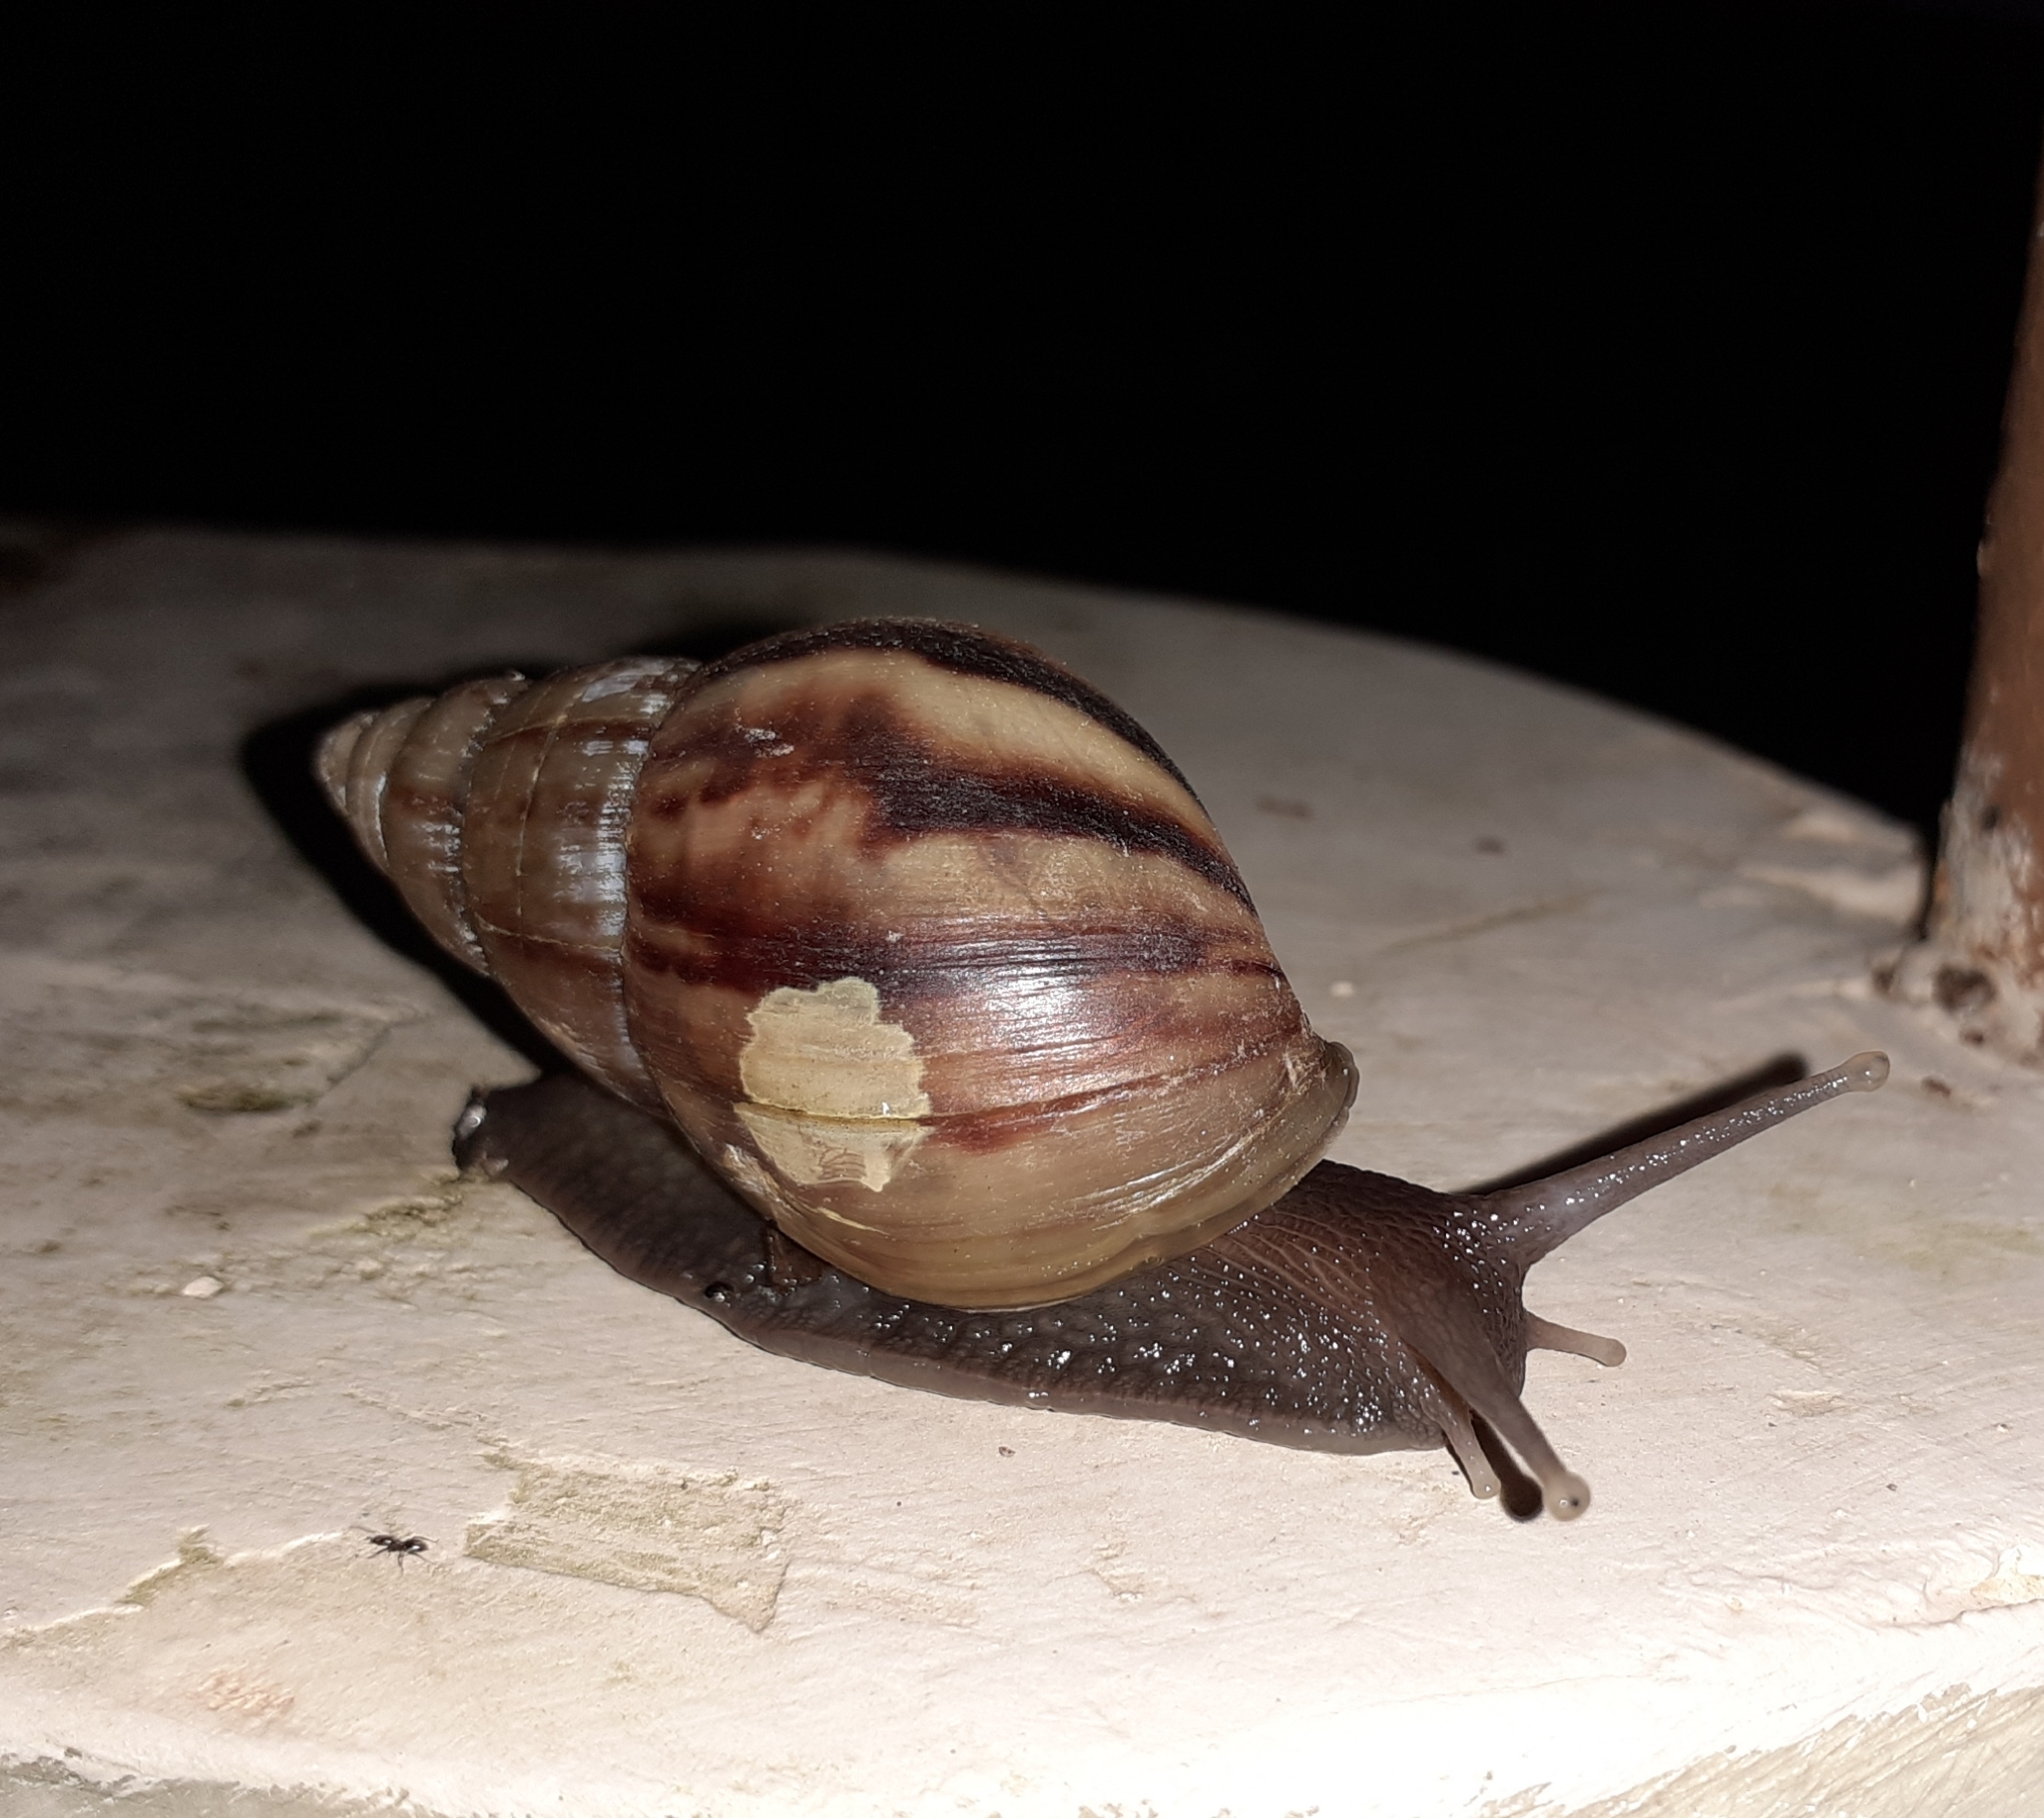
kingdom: Animalia
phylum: Mollusca
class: Gastropoda
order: Stylommatophora
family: Achatinidae
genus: Lissachatina
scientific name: Lissachatina fulica
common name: Giant african snail
